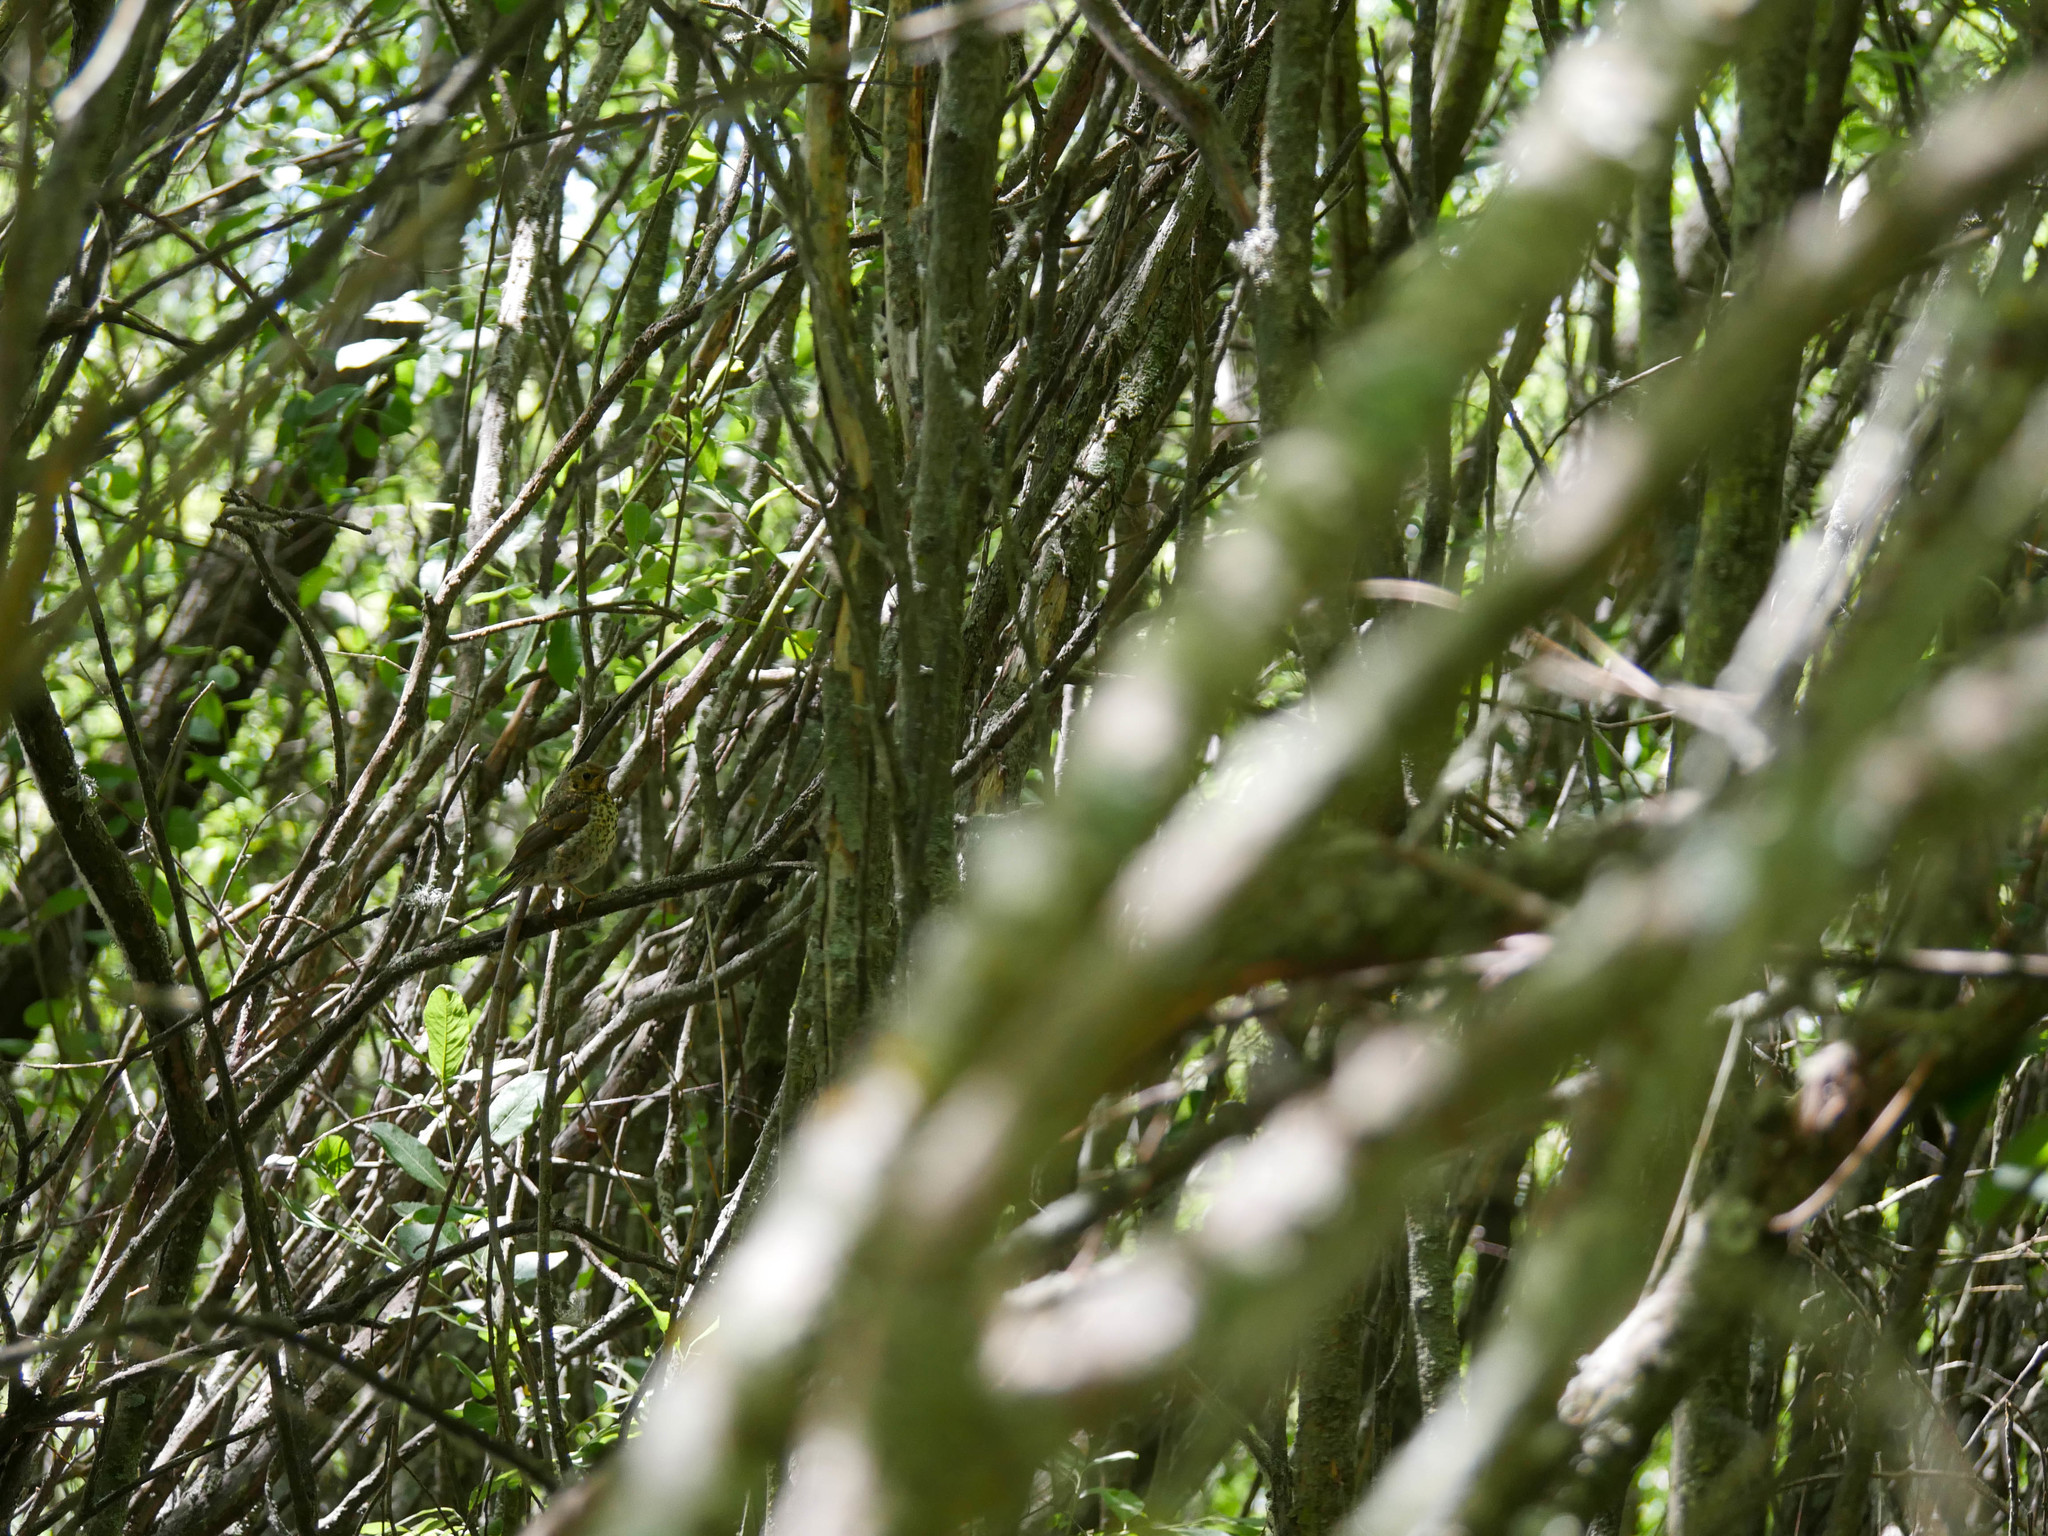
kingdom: Animalia
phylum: Chordata
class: Aves
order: Passeriformes
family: Turdidae
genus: Turdus
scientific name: Turdus philomelos
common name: Song thrush
